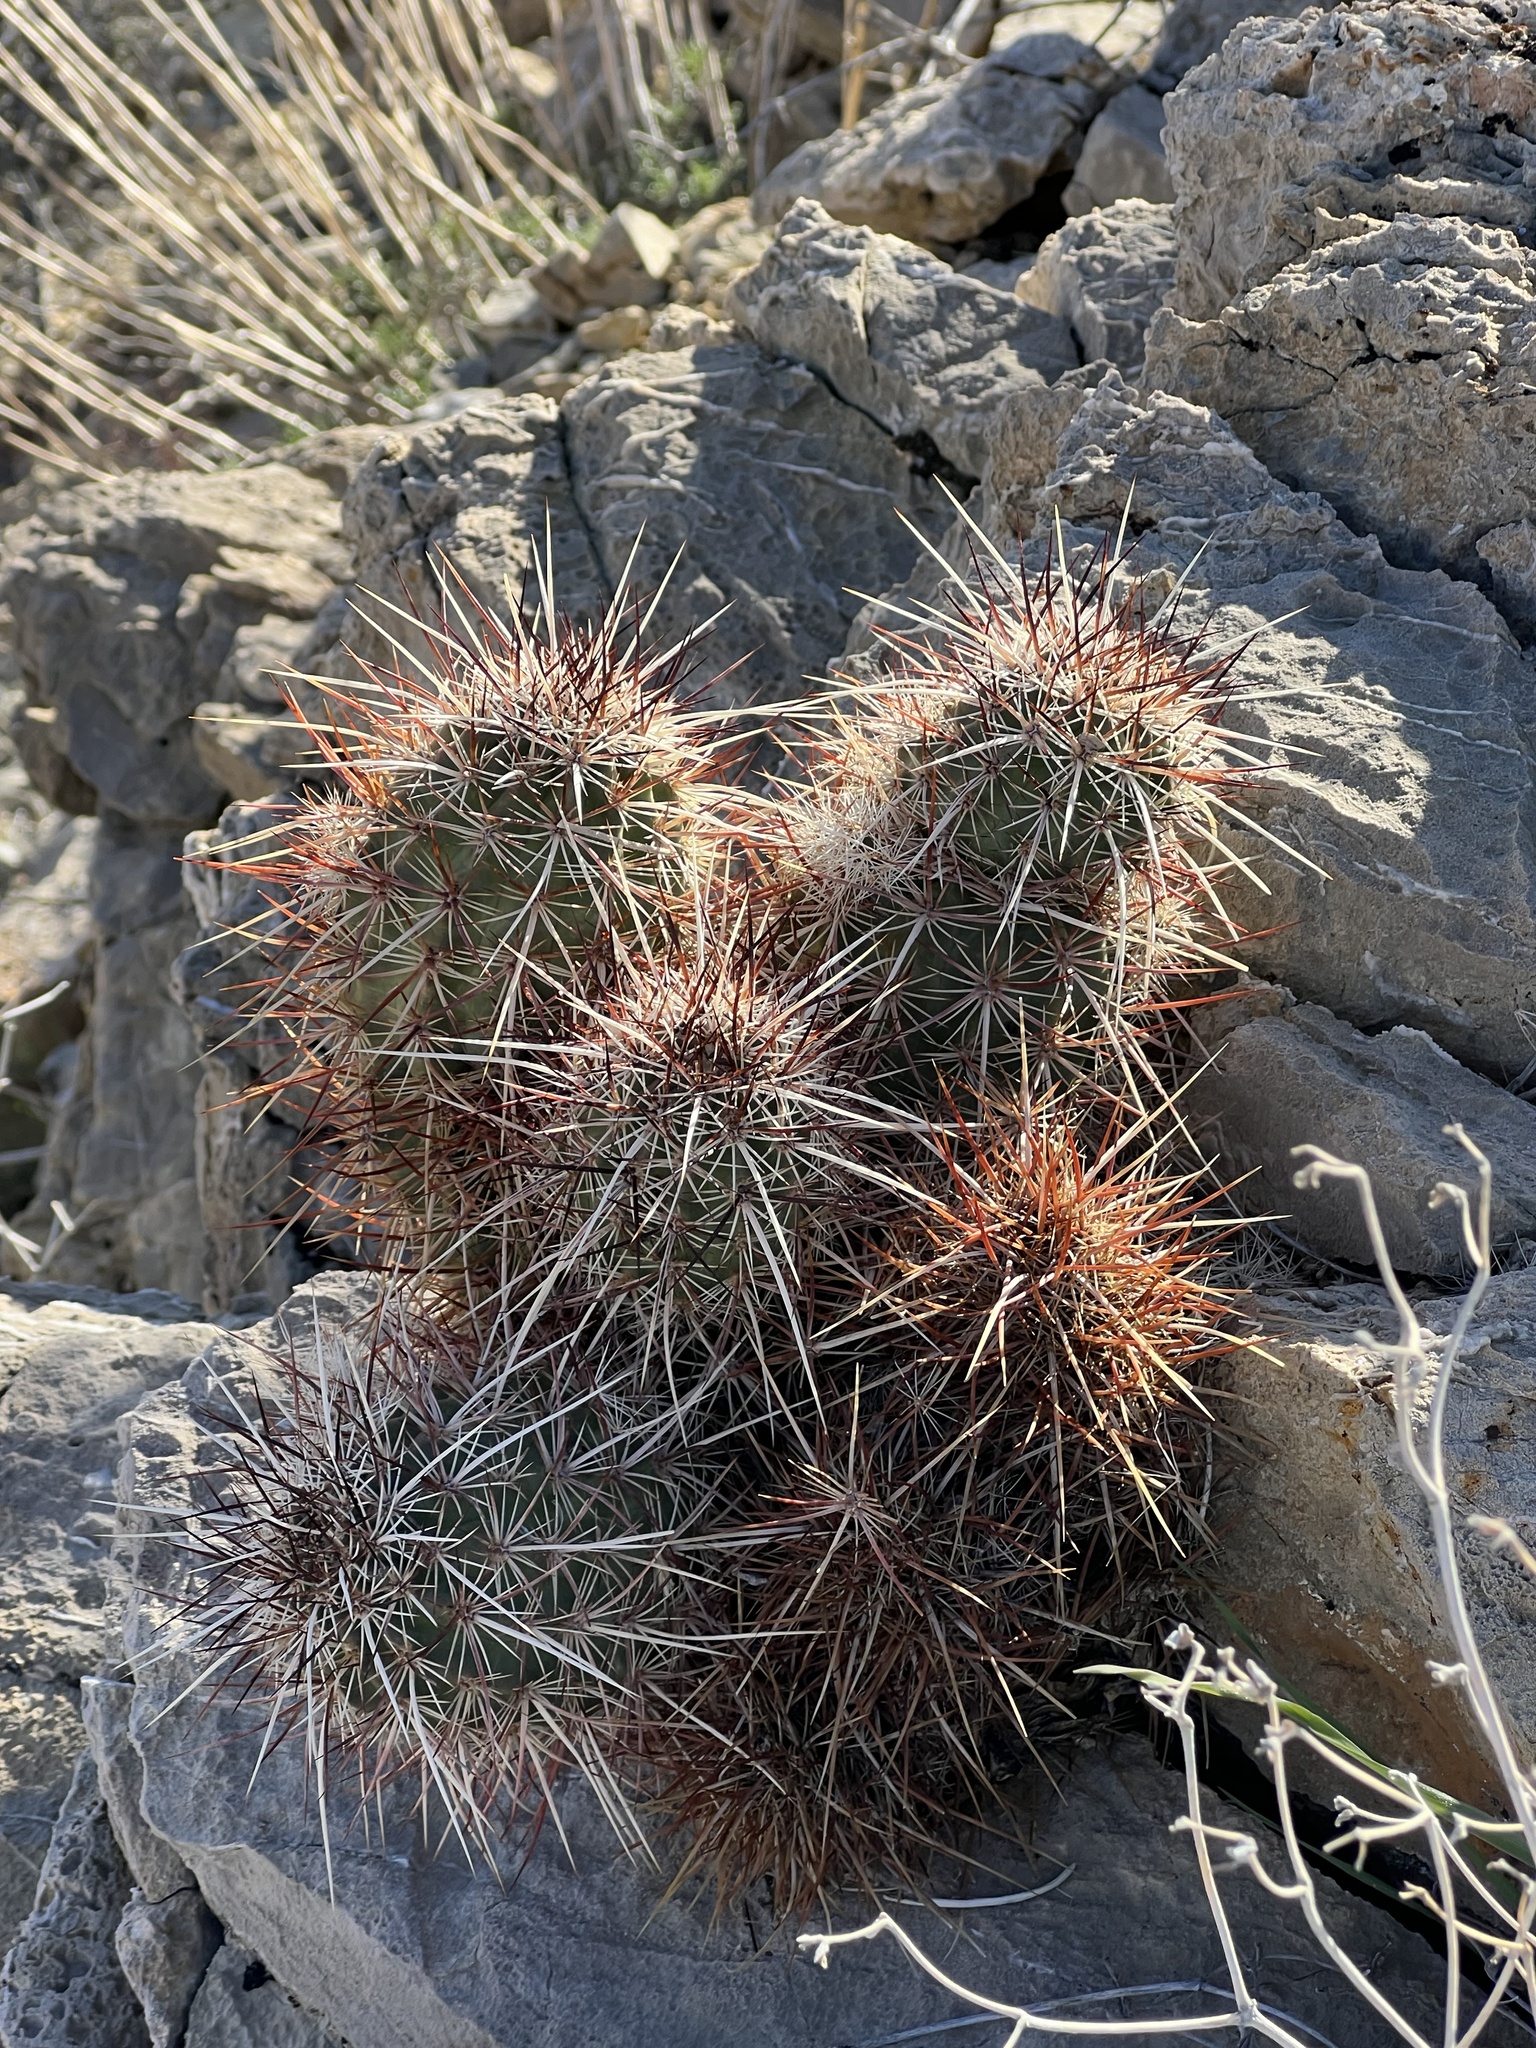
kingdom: Plantae
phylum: Tracheophyta
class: Magnoliopsida
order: Caryophyllales
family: Cactaceae
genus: Echinocereus
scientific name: Echinocereus engelmannii
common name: Engelmann's hedgehog cactus
